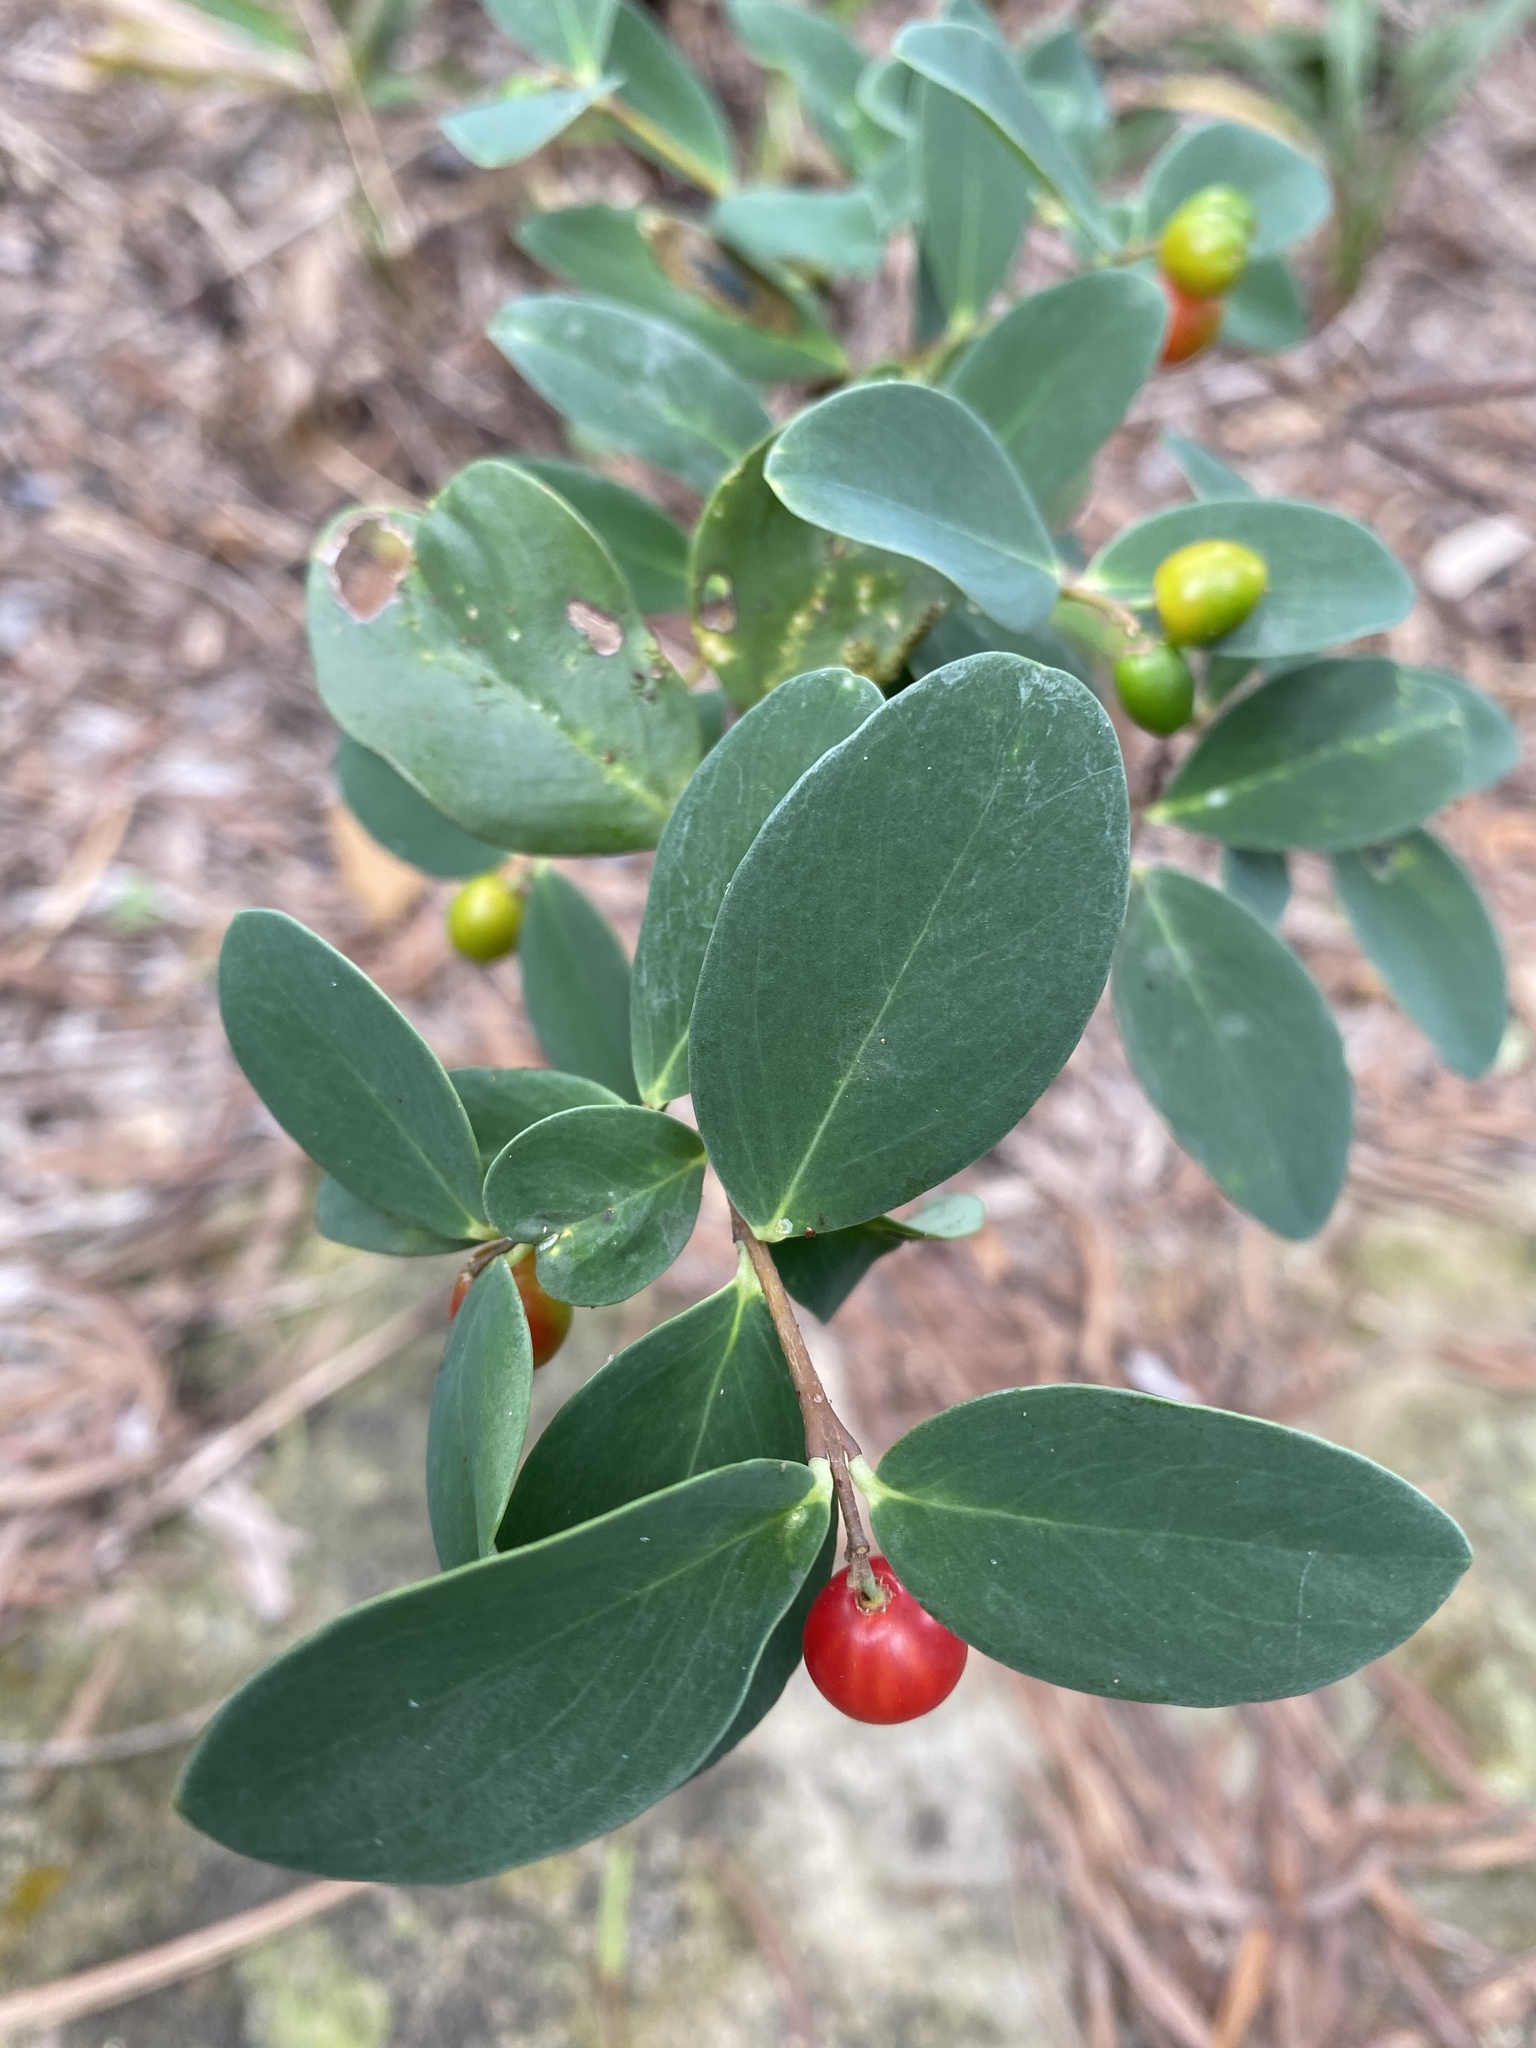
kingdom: Plantae
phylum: Tracheophyta
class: Magnoliopsida
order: Malvales
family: Thymelaeaceae
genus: Wikstroemia
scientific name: Wikstroemia indica
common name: Tiebush
